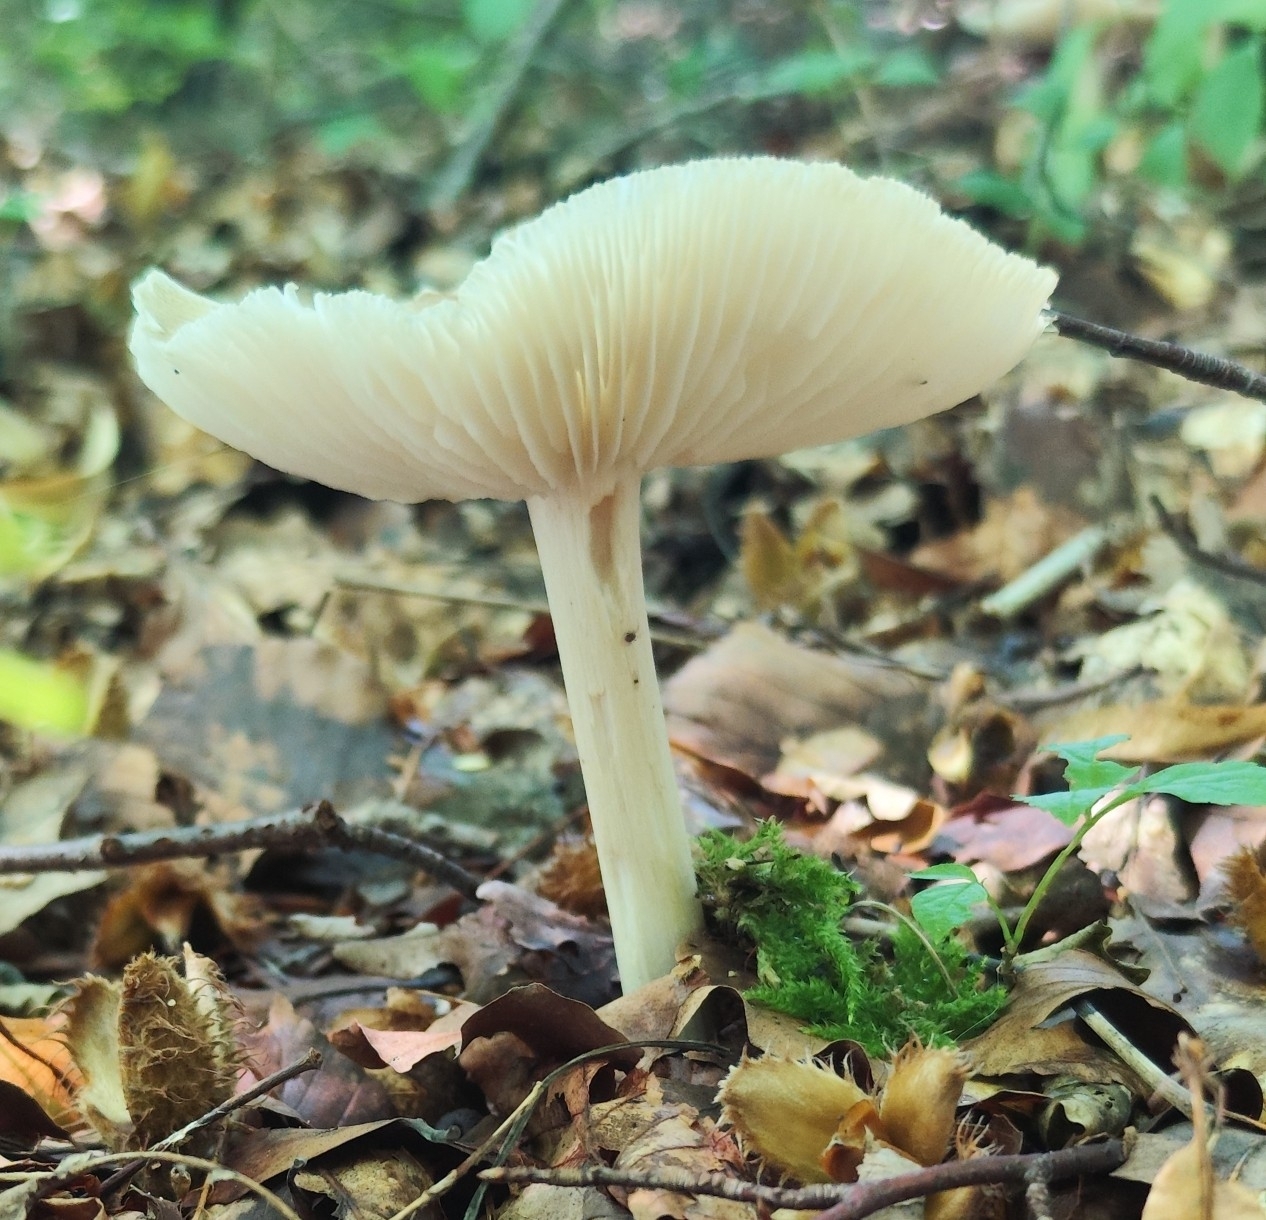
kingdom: Fungi
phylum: Basidiomycota
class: Agaricomycetes
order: Agaricales
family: Tricholomataceae
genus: Megacollybia
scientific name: Megacollybia platyphylla
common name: Whitelaced shank
